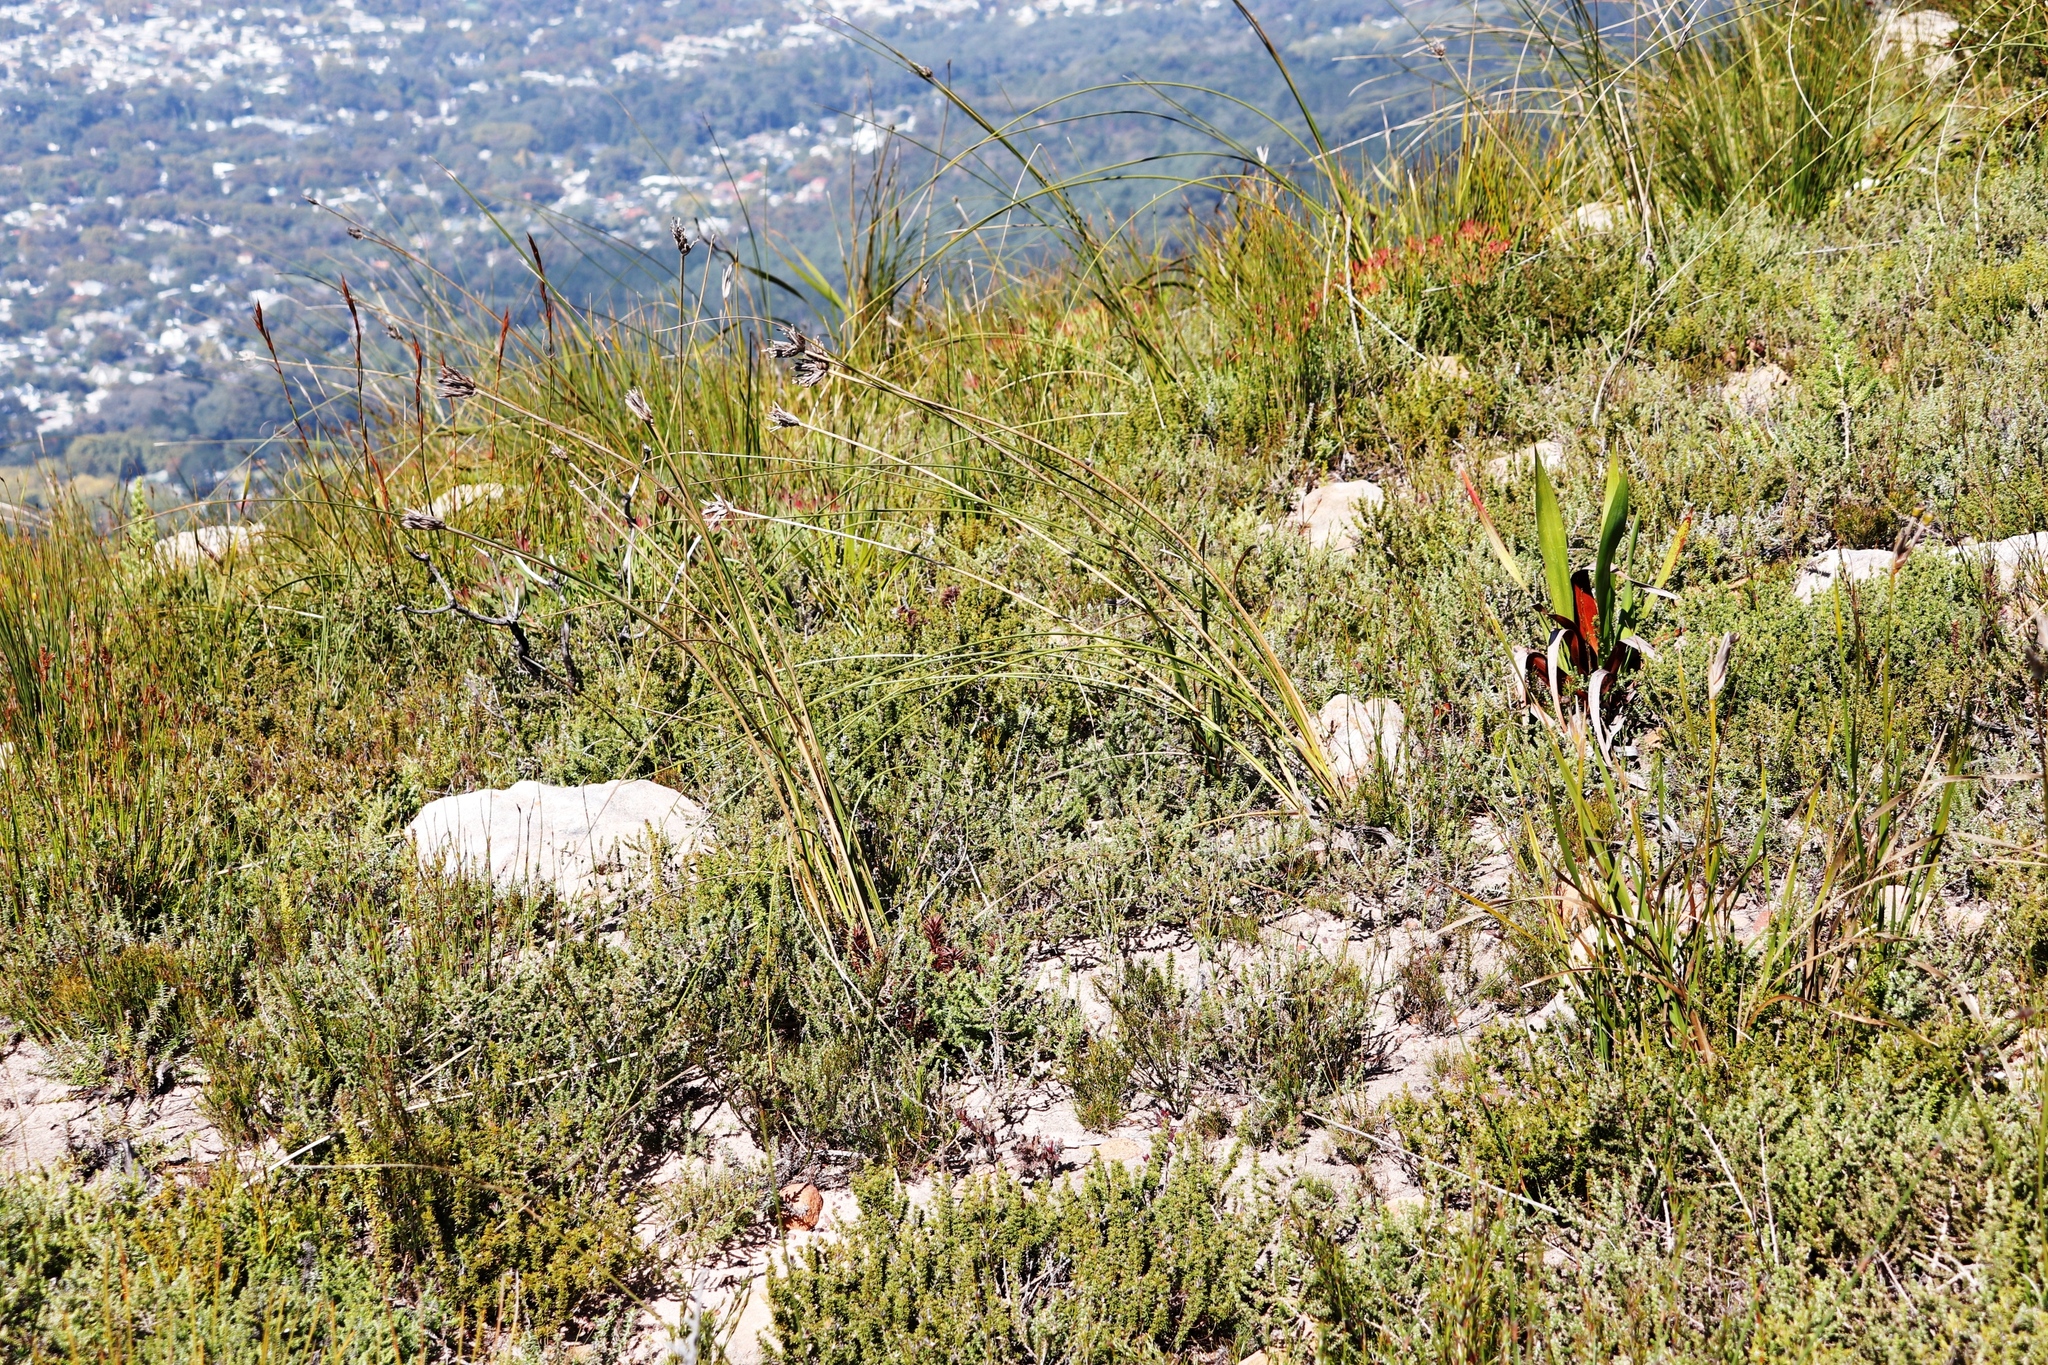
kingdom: Plantae
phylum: Tracheophyta
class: Liliopsida
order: Asparagales
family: Iridaceae
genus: Bobartia
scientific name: Bobartia indica
